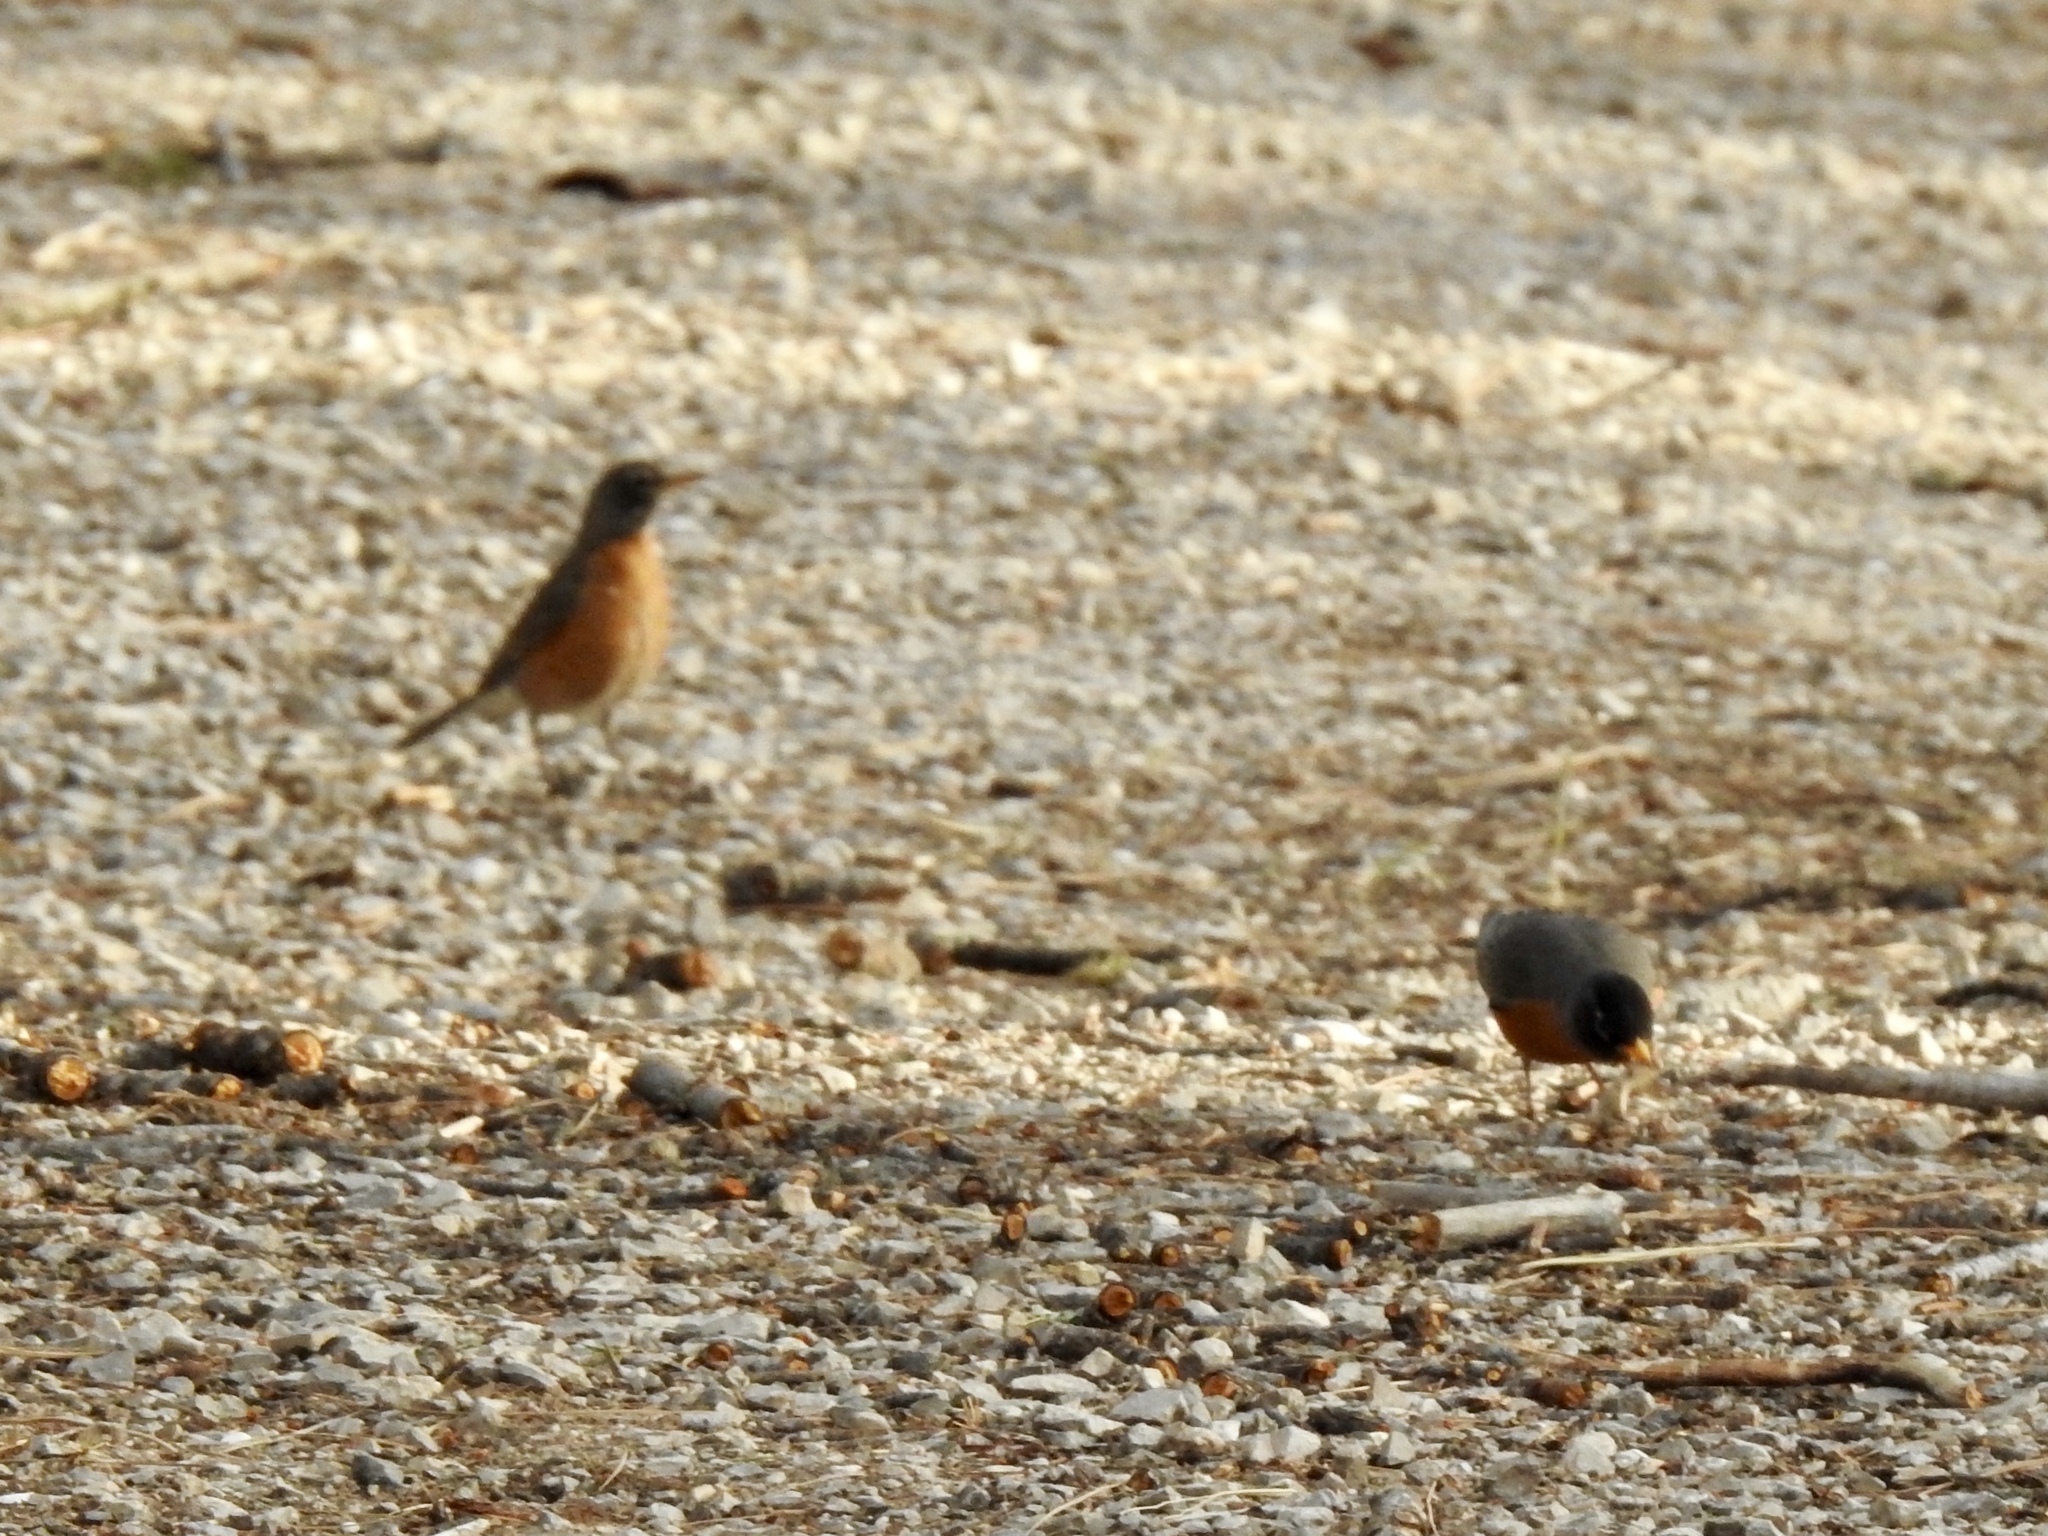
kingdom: Animalia
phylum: Chordata
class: Aves
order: Passeriformes
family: Turdidae
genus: Turdus
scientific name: Turdus migratorius
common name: American robin
